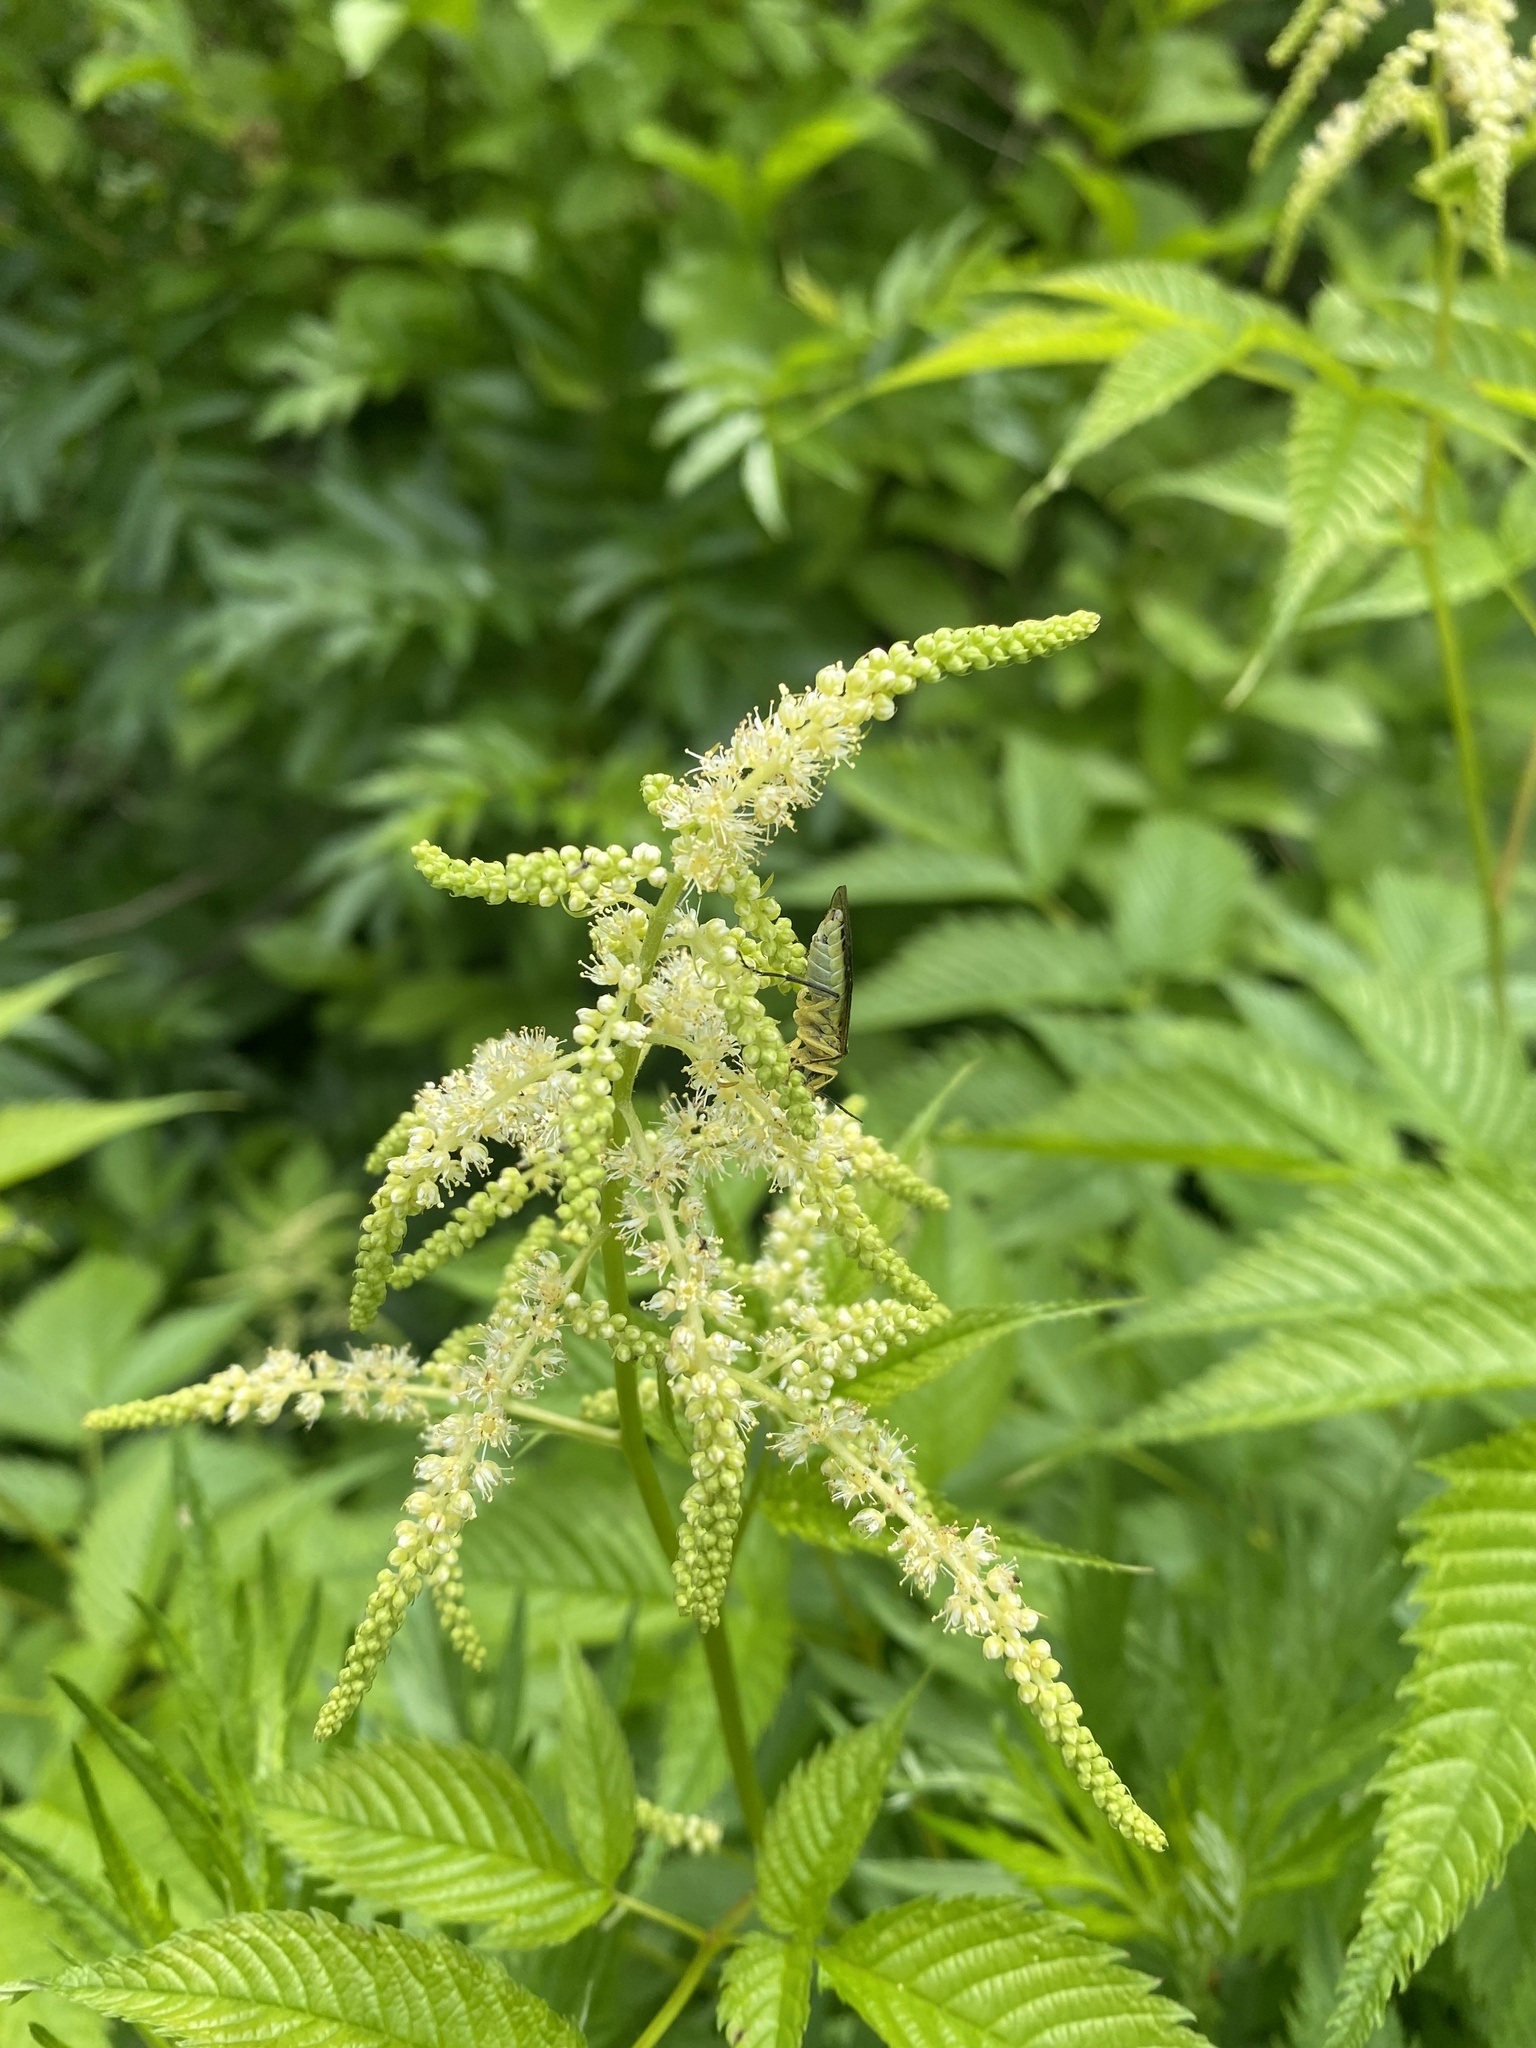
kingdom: Plantae
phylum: Tracheophyta
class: Magnoliopsida
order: Rosales
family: Rosaceae
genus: Aruncus
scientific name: Aruncus dioicus
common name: Buck's-beard
